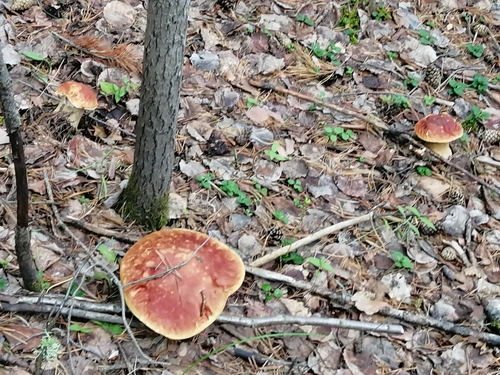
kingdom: Fungi
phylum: Basidiomycota
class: Agaricomycetes
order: Boletales
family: Boletaceae
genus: Boletus
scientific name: Boletus edulis
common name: Cep
